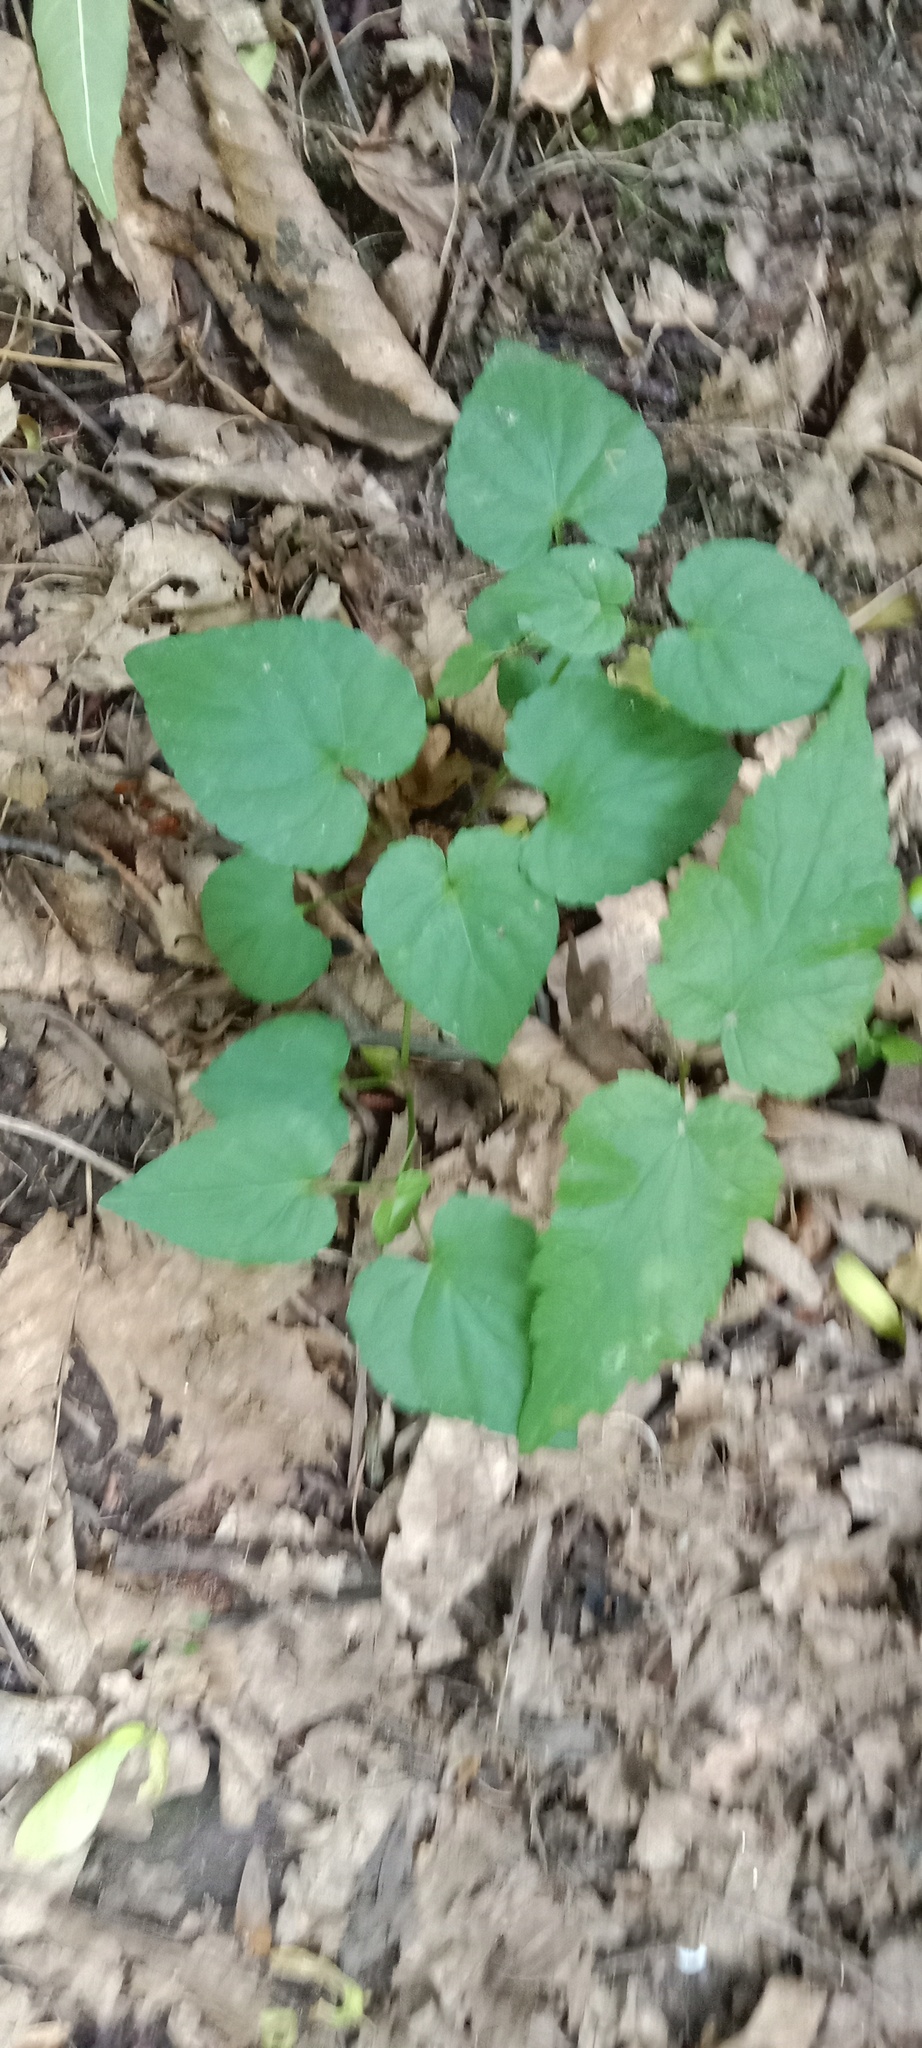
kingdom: Plantae
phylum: Tracheophyta
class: Magnoliopsida
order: Malpighiales
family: Violaceae
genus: Viola
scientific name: Viola reichenbachiana
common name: Early dog-violet
